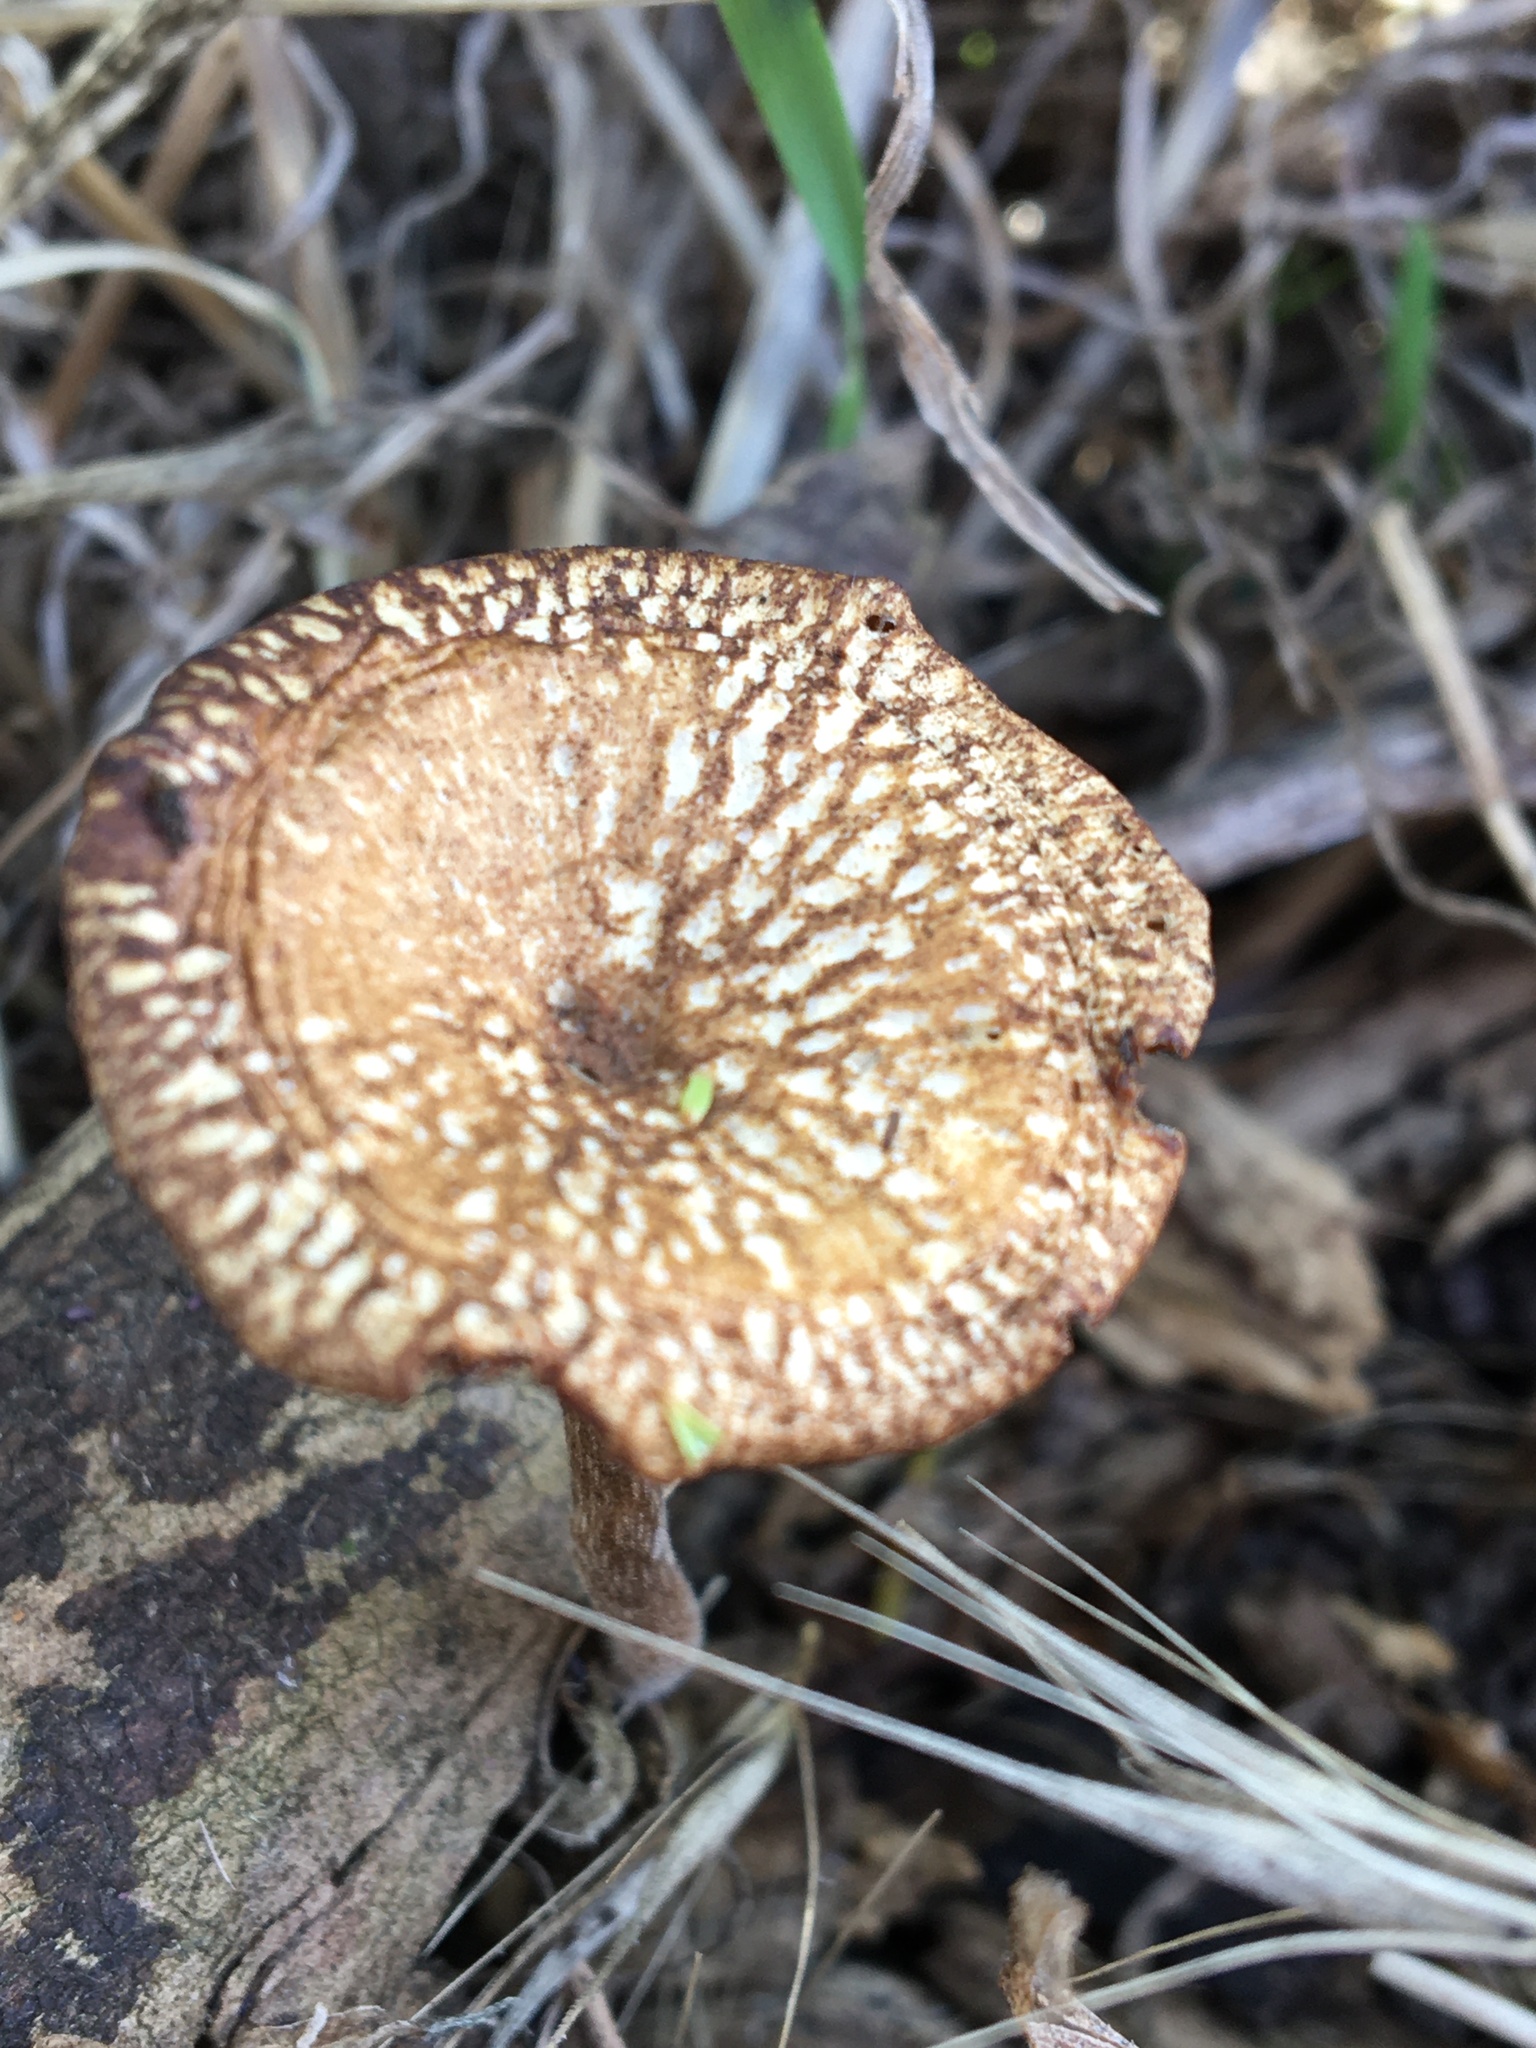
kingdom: Fungi
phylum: Basidiomycota
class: Agaricomycetes
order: Polyporales
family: Polyporaceae
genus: Lentinus
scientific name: Lentinus arcularius
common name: Spring polypore
